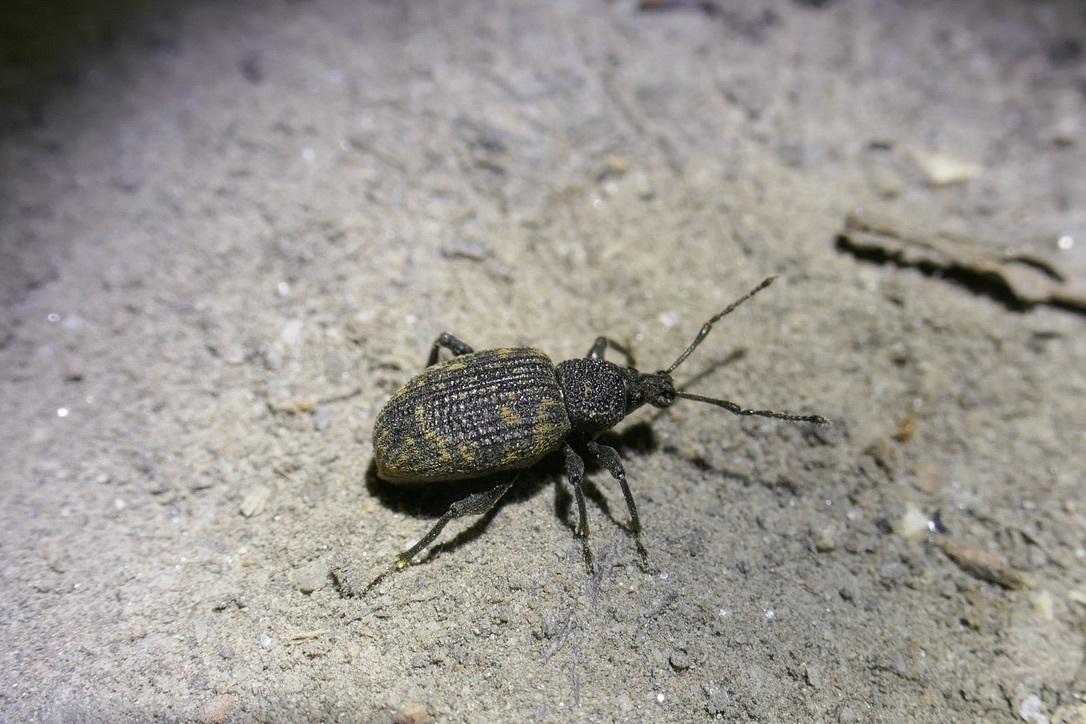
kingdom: Animalia
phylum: Arthropoda
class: Insecta
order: Coleoptera
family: Curculionidae
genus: Otiorhynchus
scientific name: Otiorhynchus sulcatus
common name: Black vine weevil
